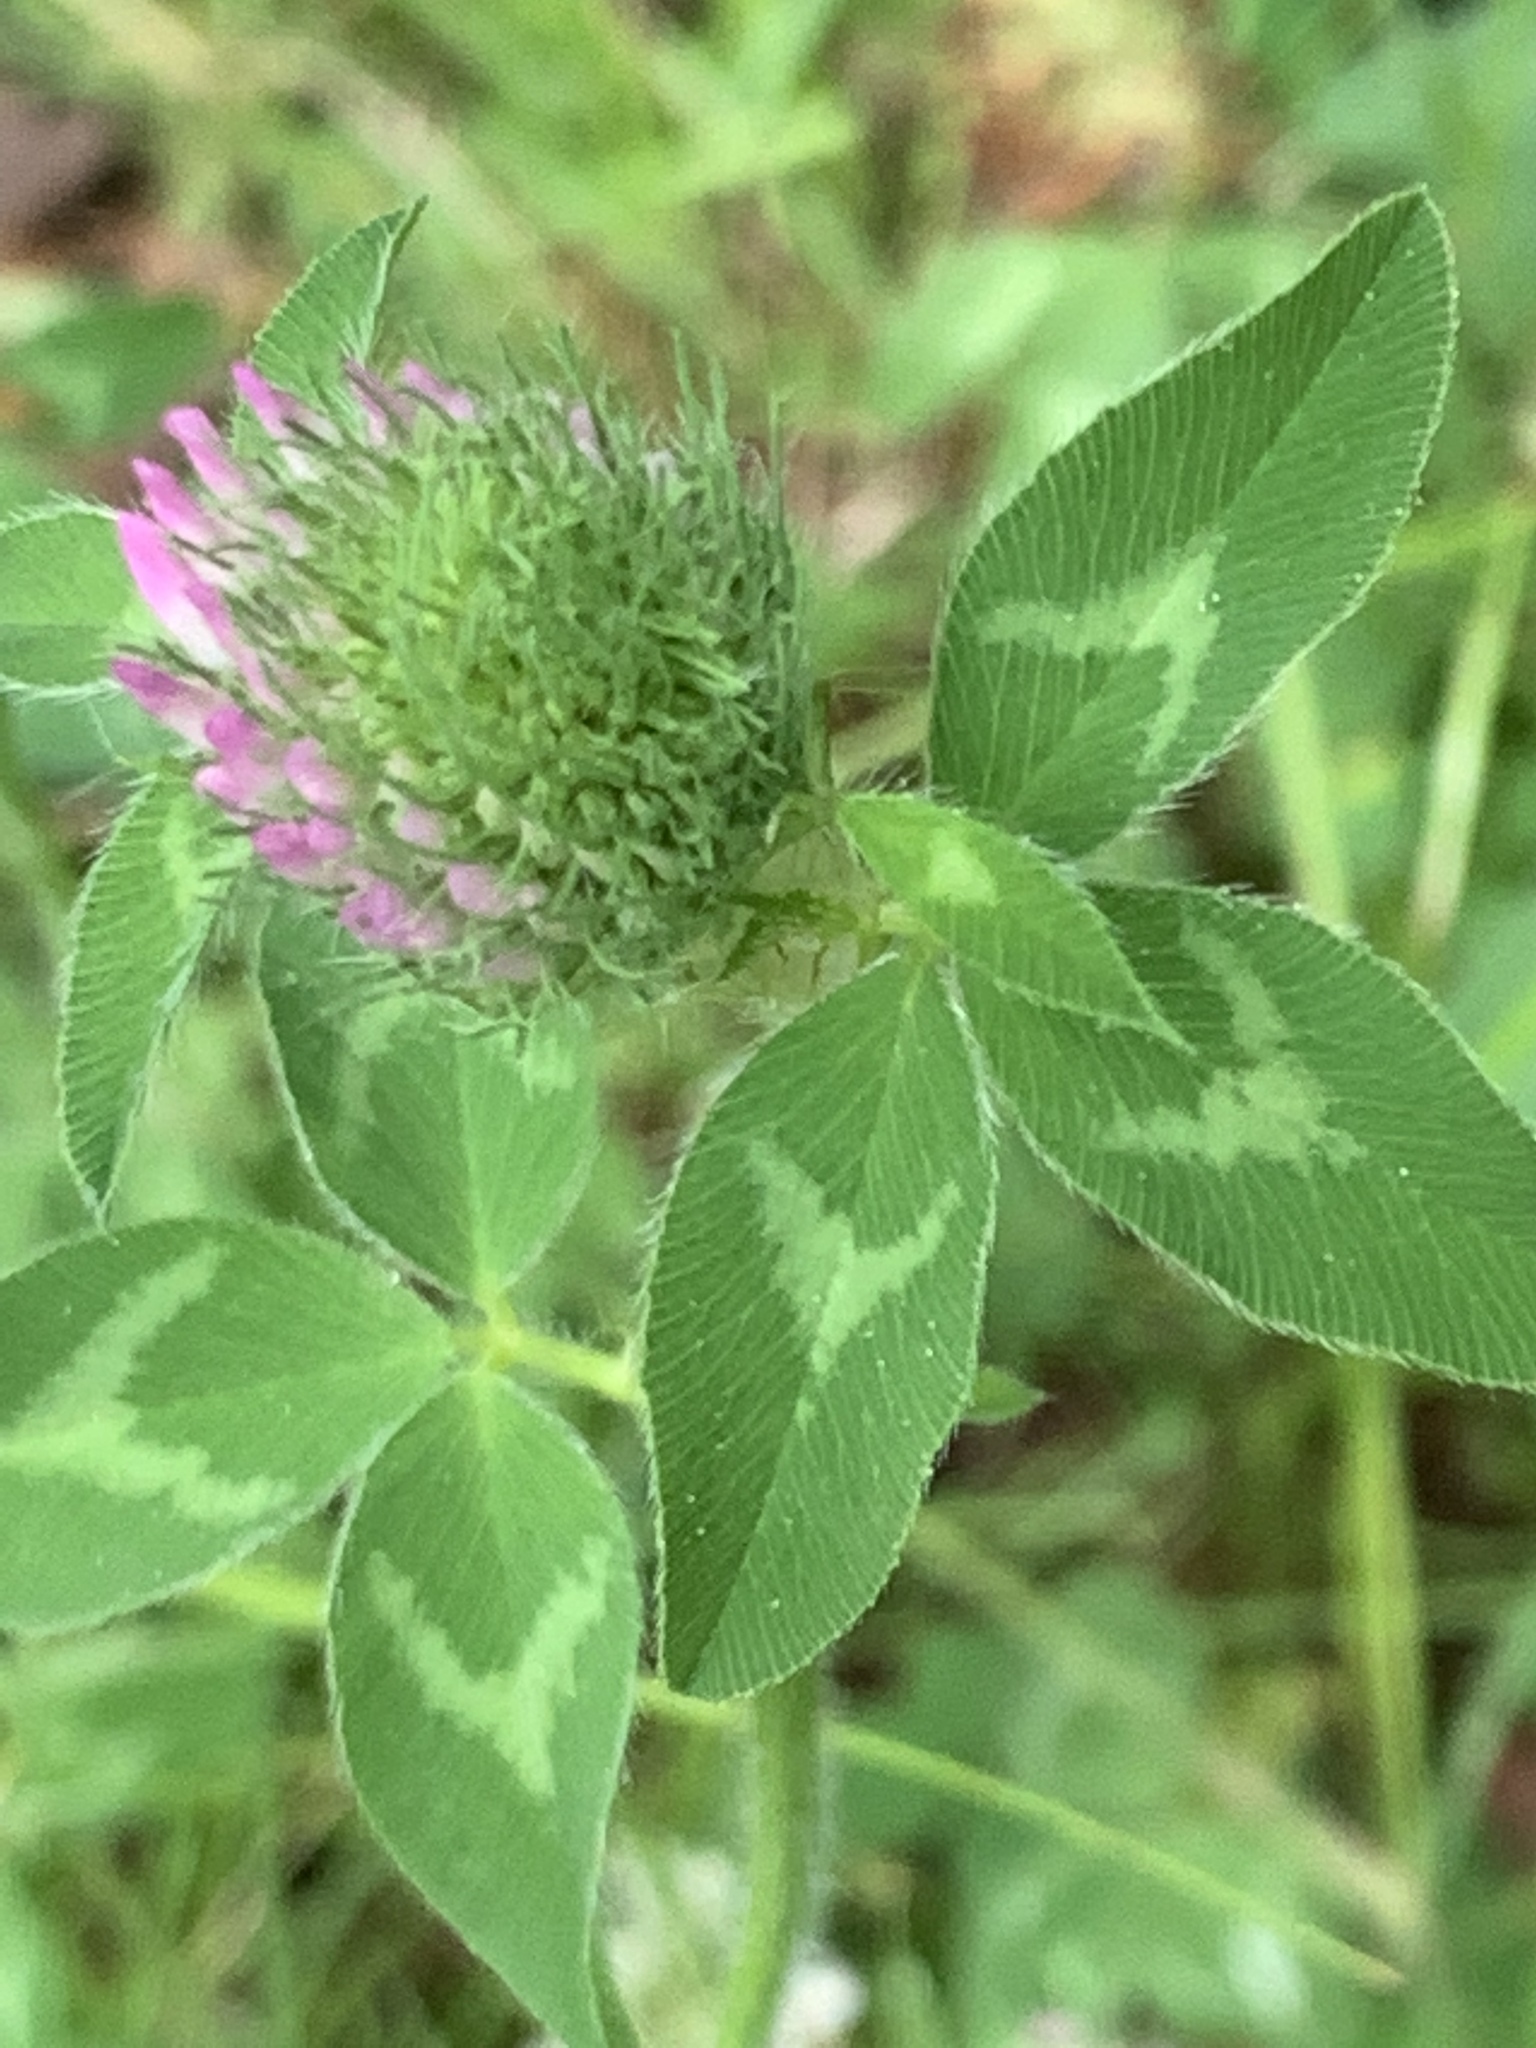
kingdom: Plantae
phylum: Tracheophyta
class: Magnoliopsida
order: Fabales
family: Fabaceae
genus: Trifolium
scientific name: Trifolium pratense
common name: Red clover
